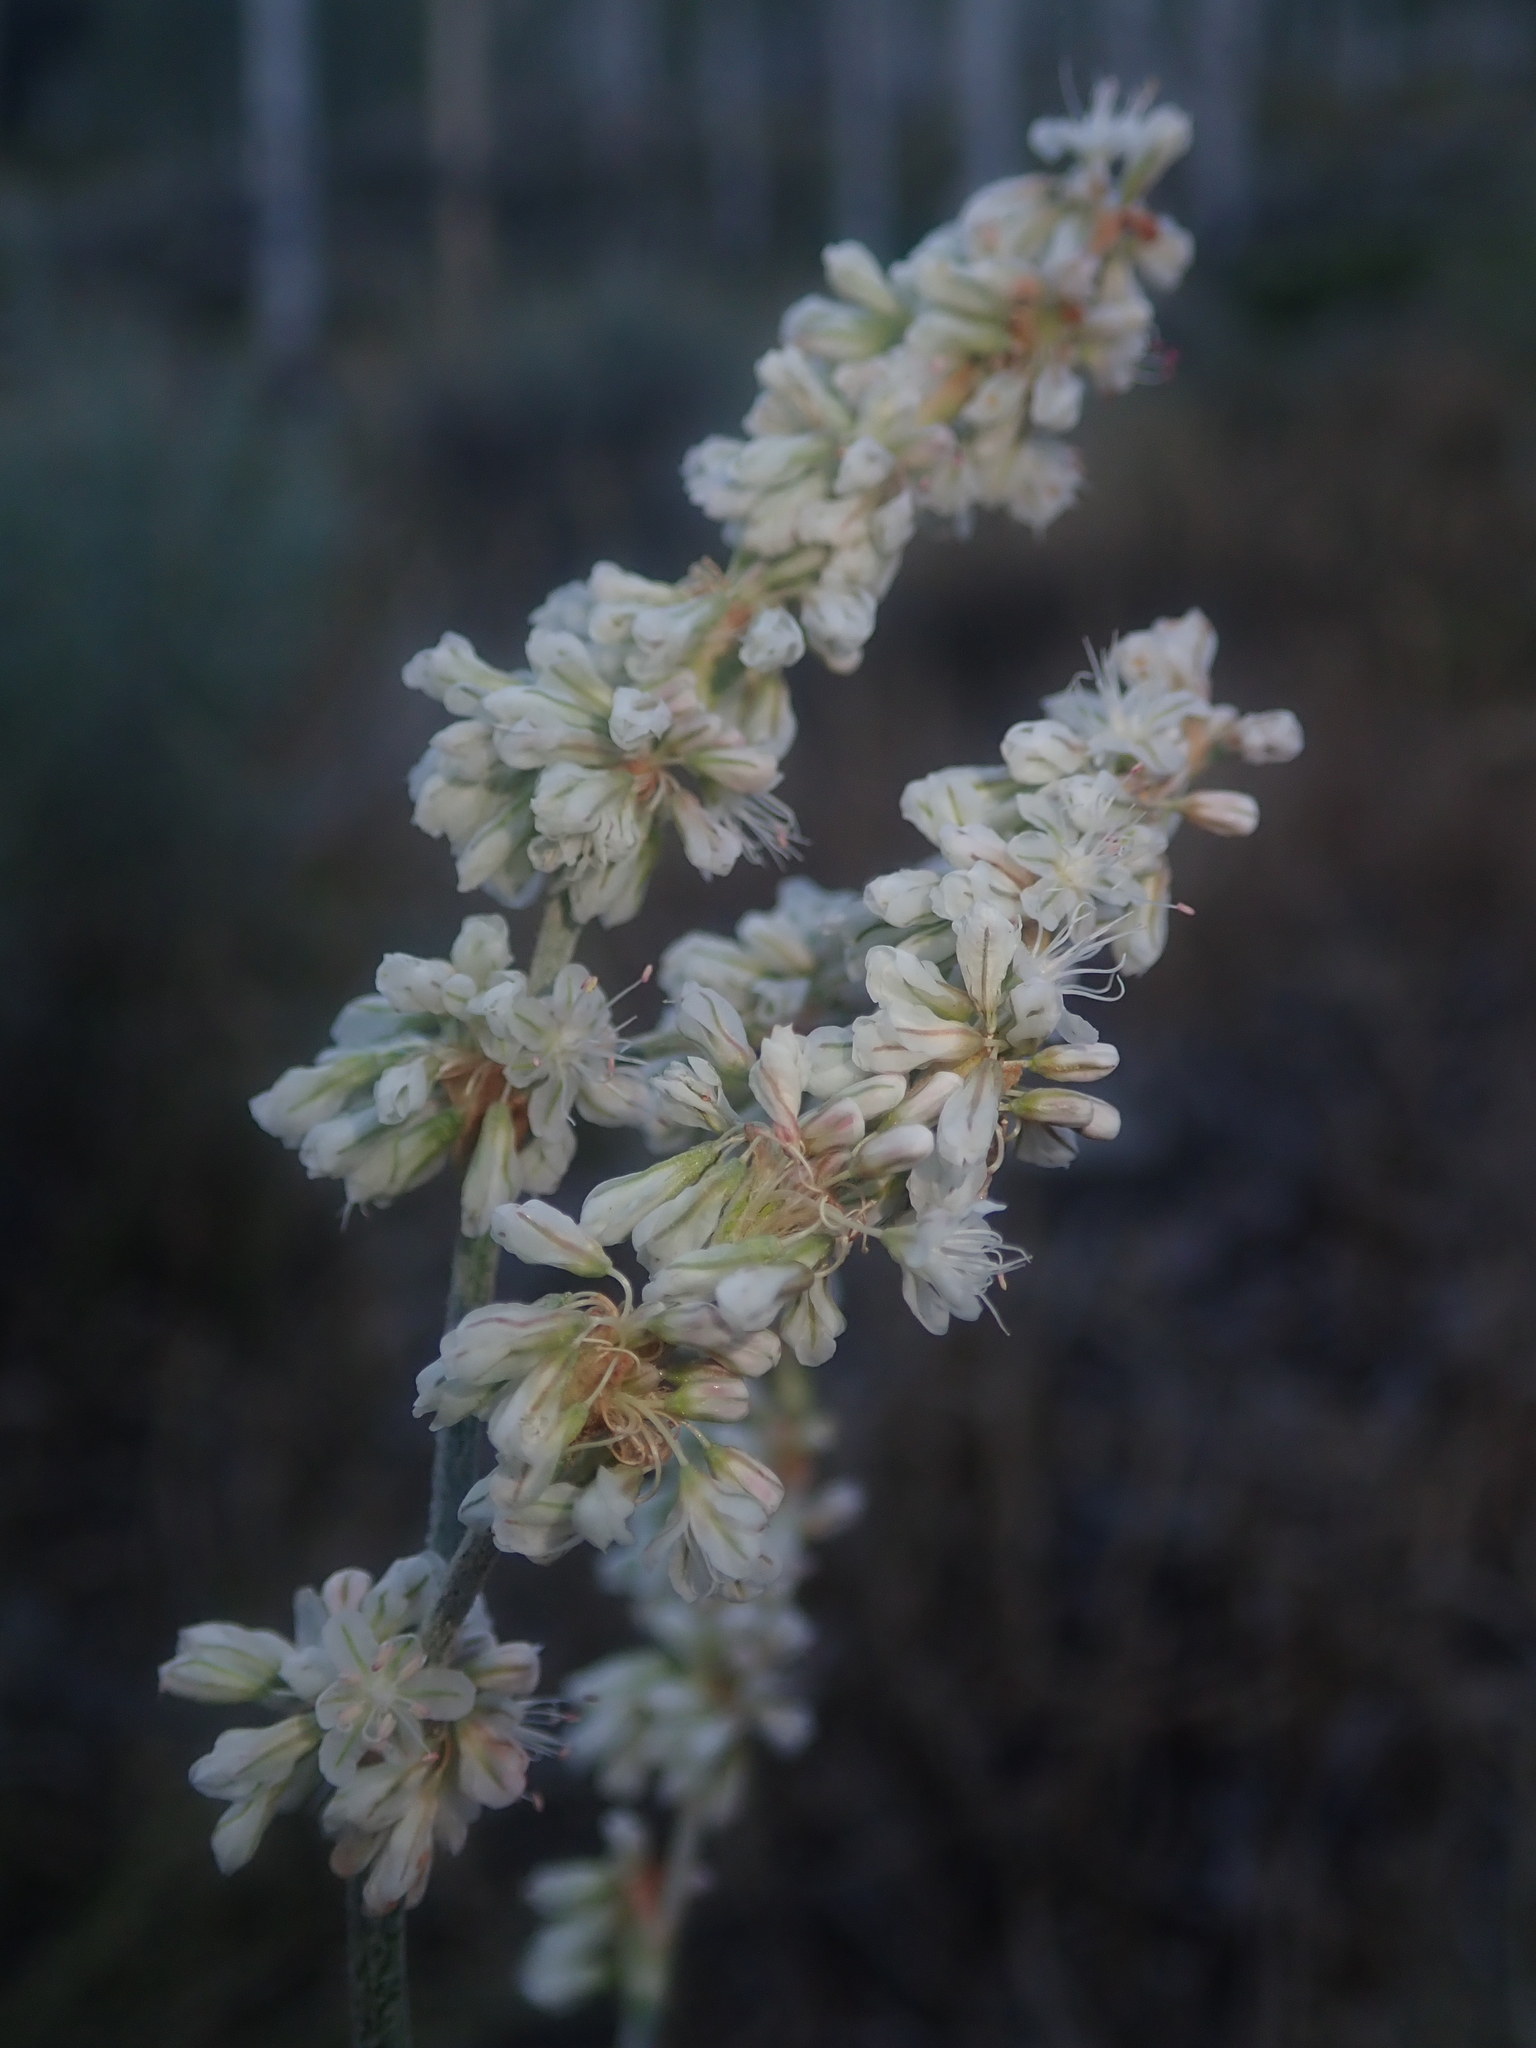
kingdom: Plantae
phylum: Tracheophyta
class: Magnoliopsida
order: Caryophyllales
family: Polygonaceae
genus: Eriogonum
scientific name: Eriogonum racemosum
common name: Redroot wild buckwheat
